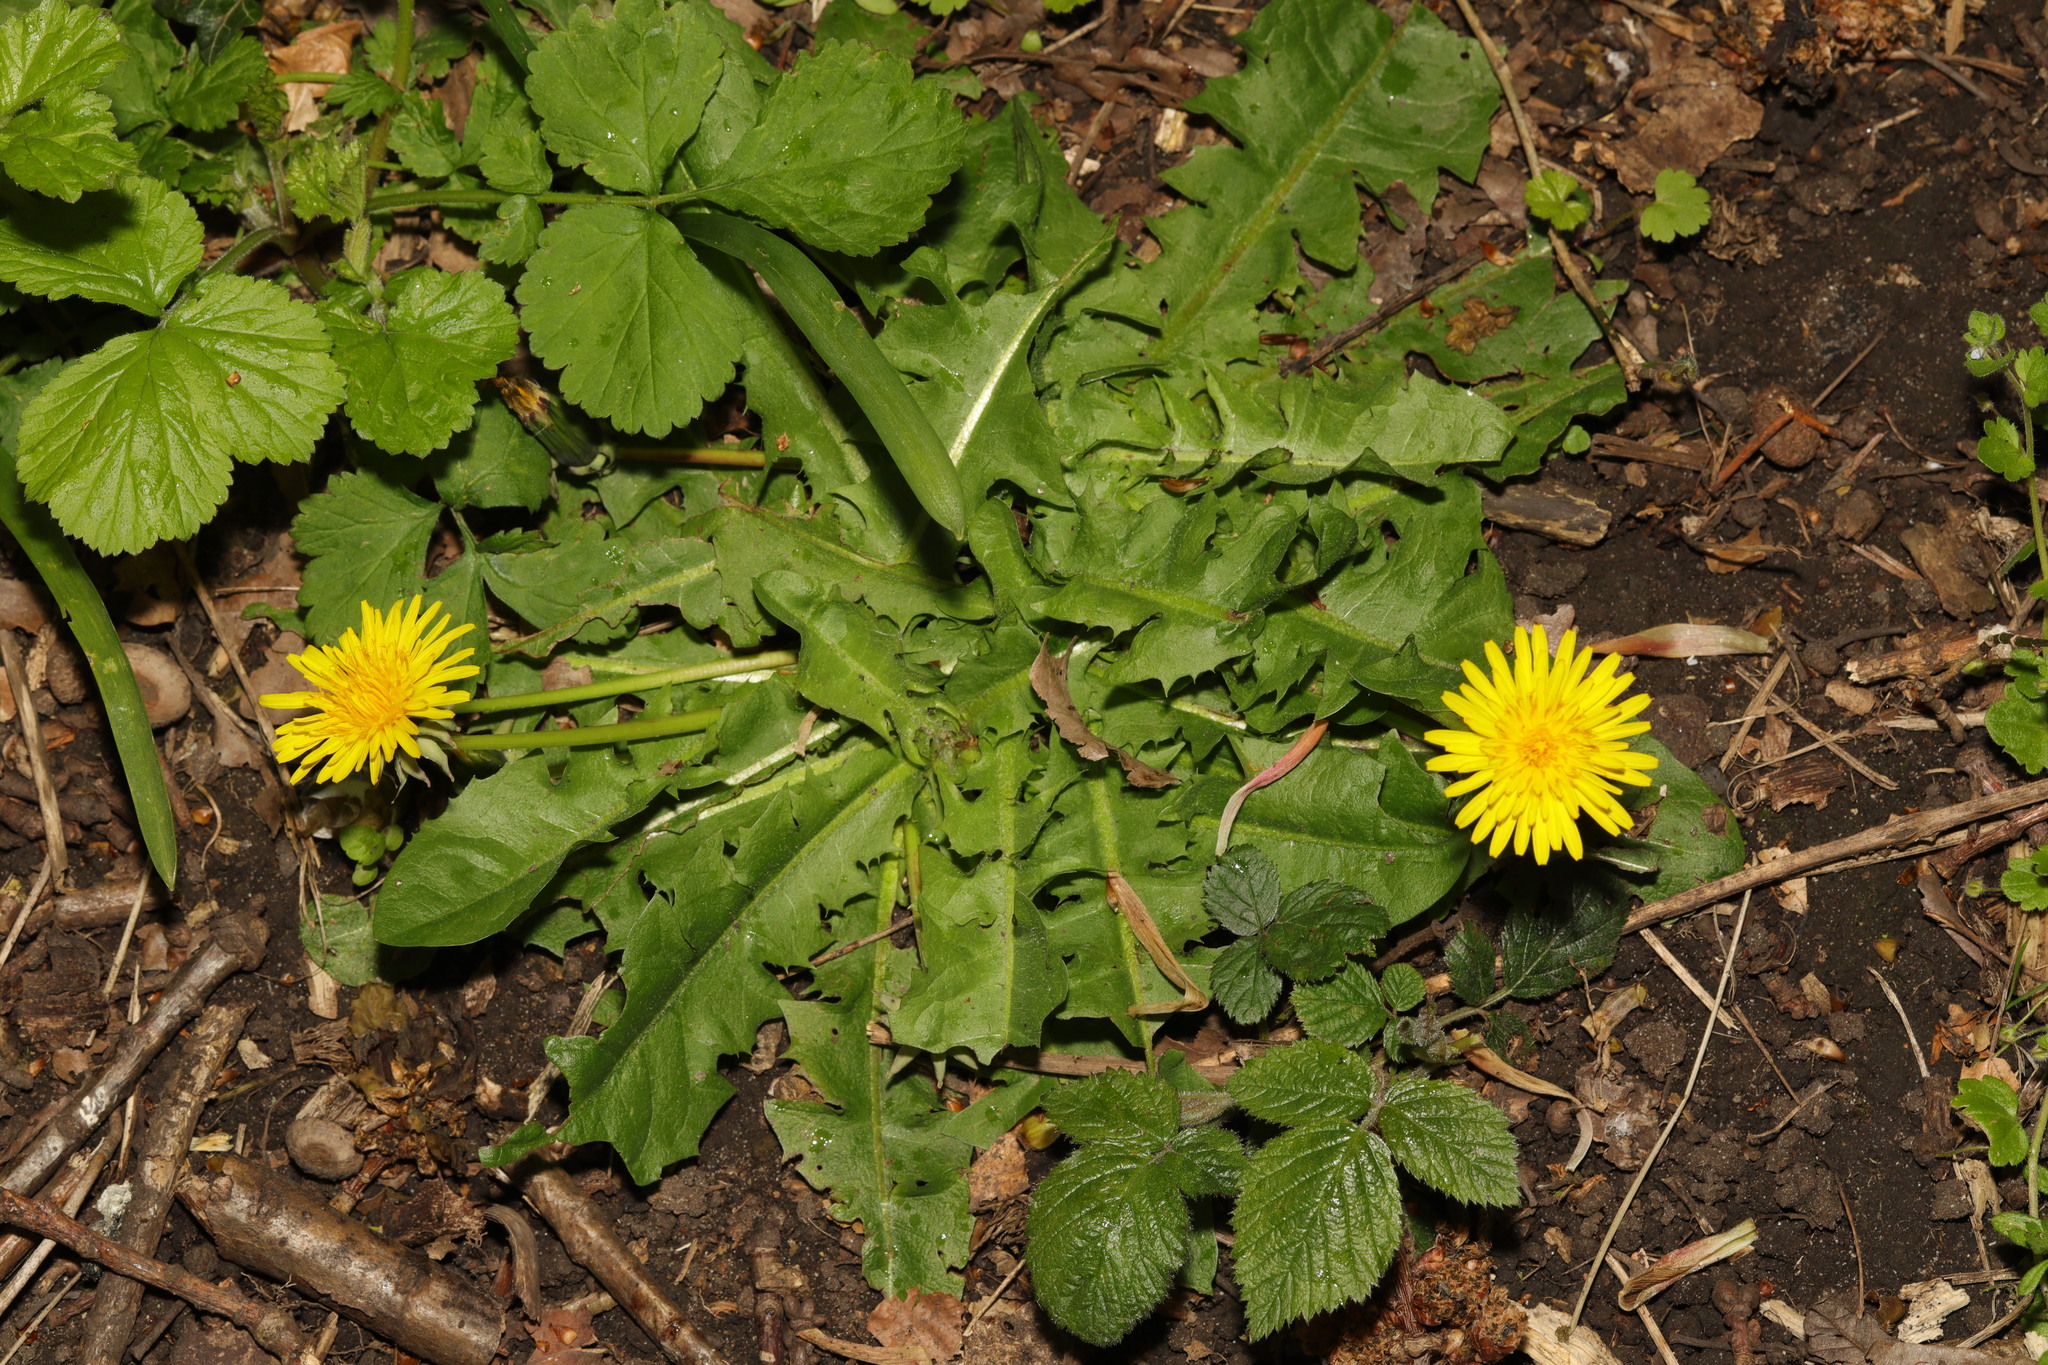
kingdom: Plantae
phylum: Tracheophyta
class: Magnoliopsida
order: Asterales
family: Asteraceae
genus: Taraxacum
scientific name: Taraxacum officinale
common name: Common dandelion
